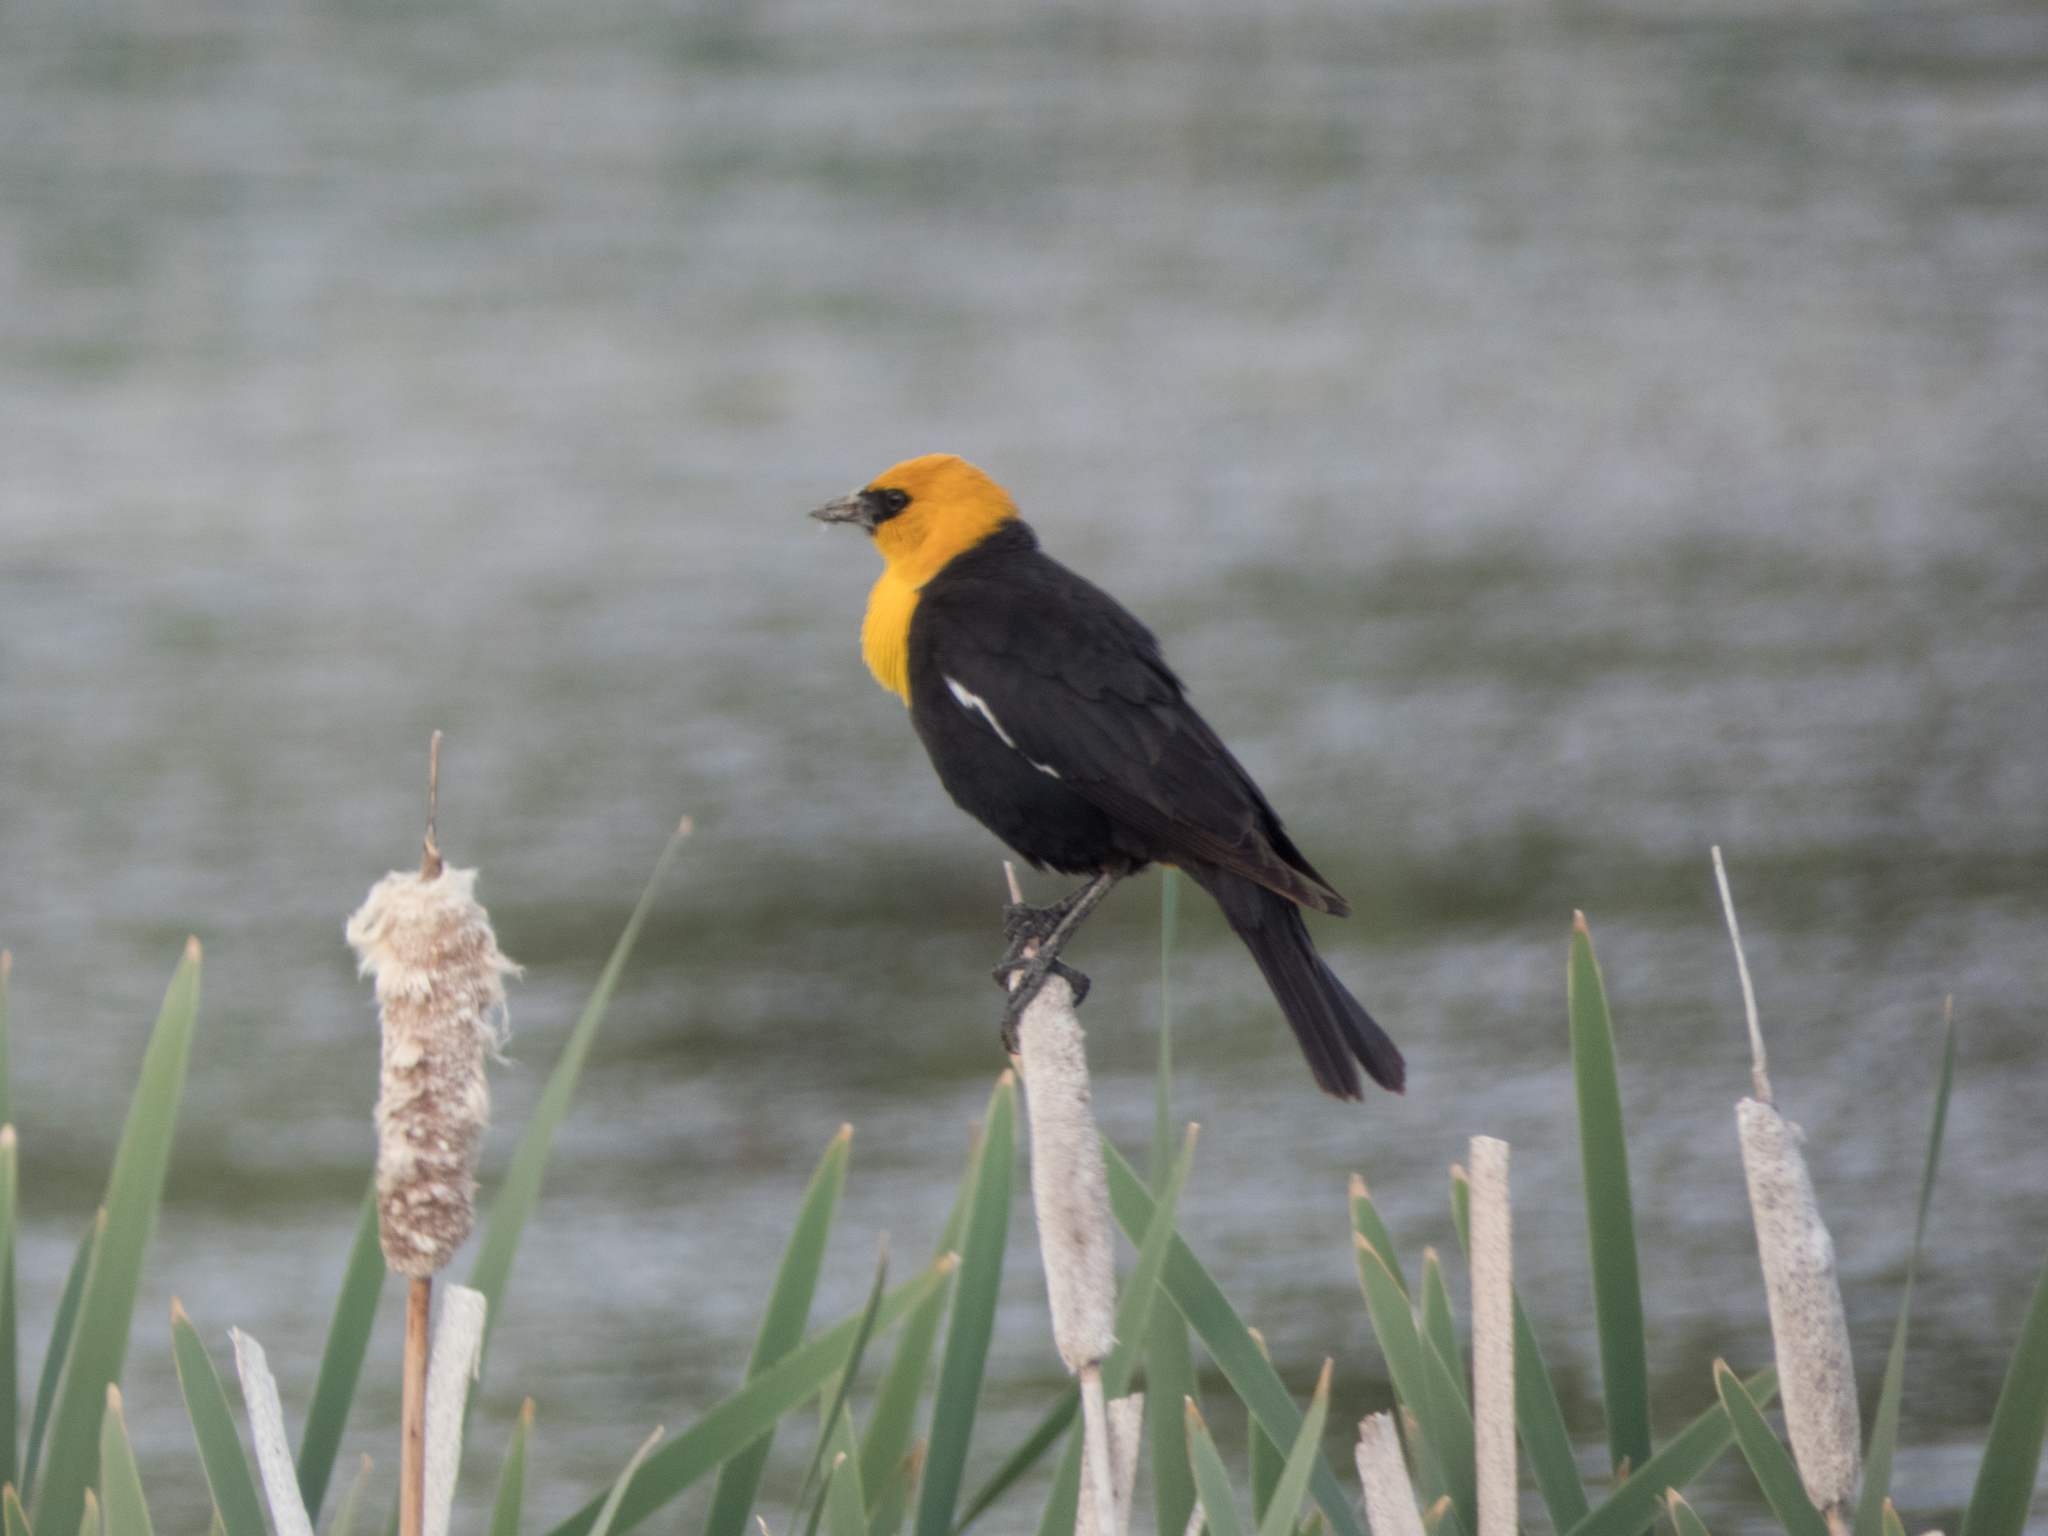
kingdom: Animalia
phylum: Chordata
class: Aves
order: Passeriformes
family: Icteridae
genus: Xanthocephalus
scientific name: Xanthocephalus xanthocephalus
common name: Yellow-headed blackbird
